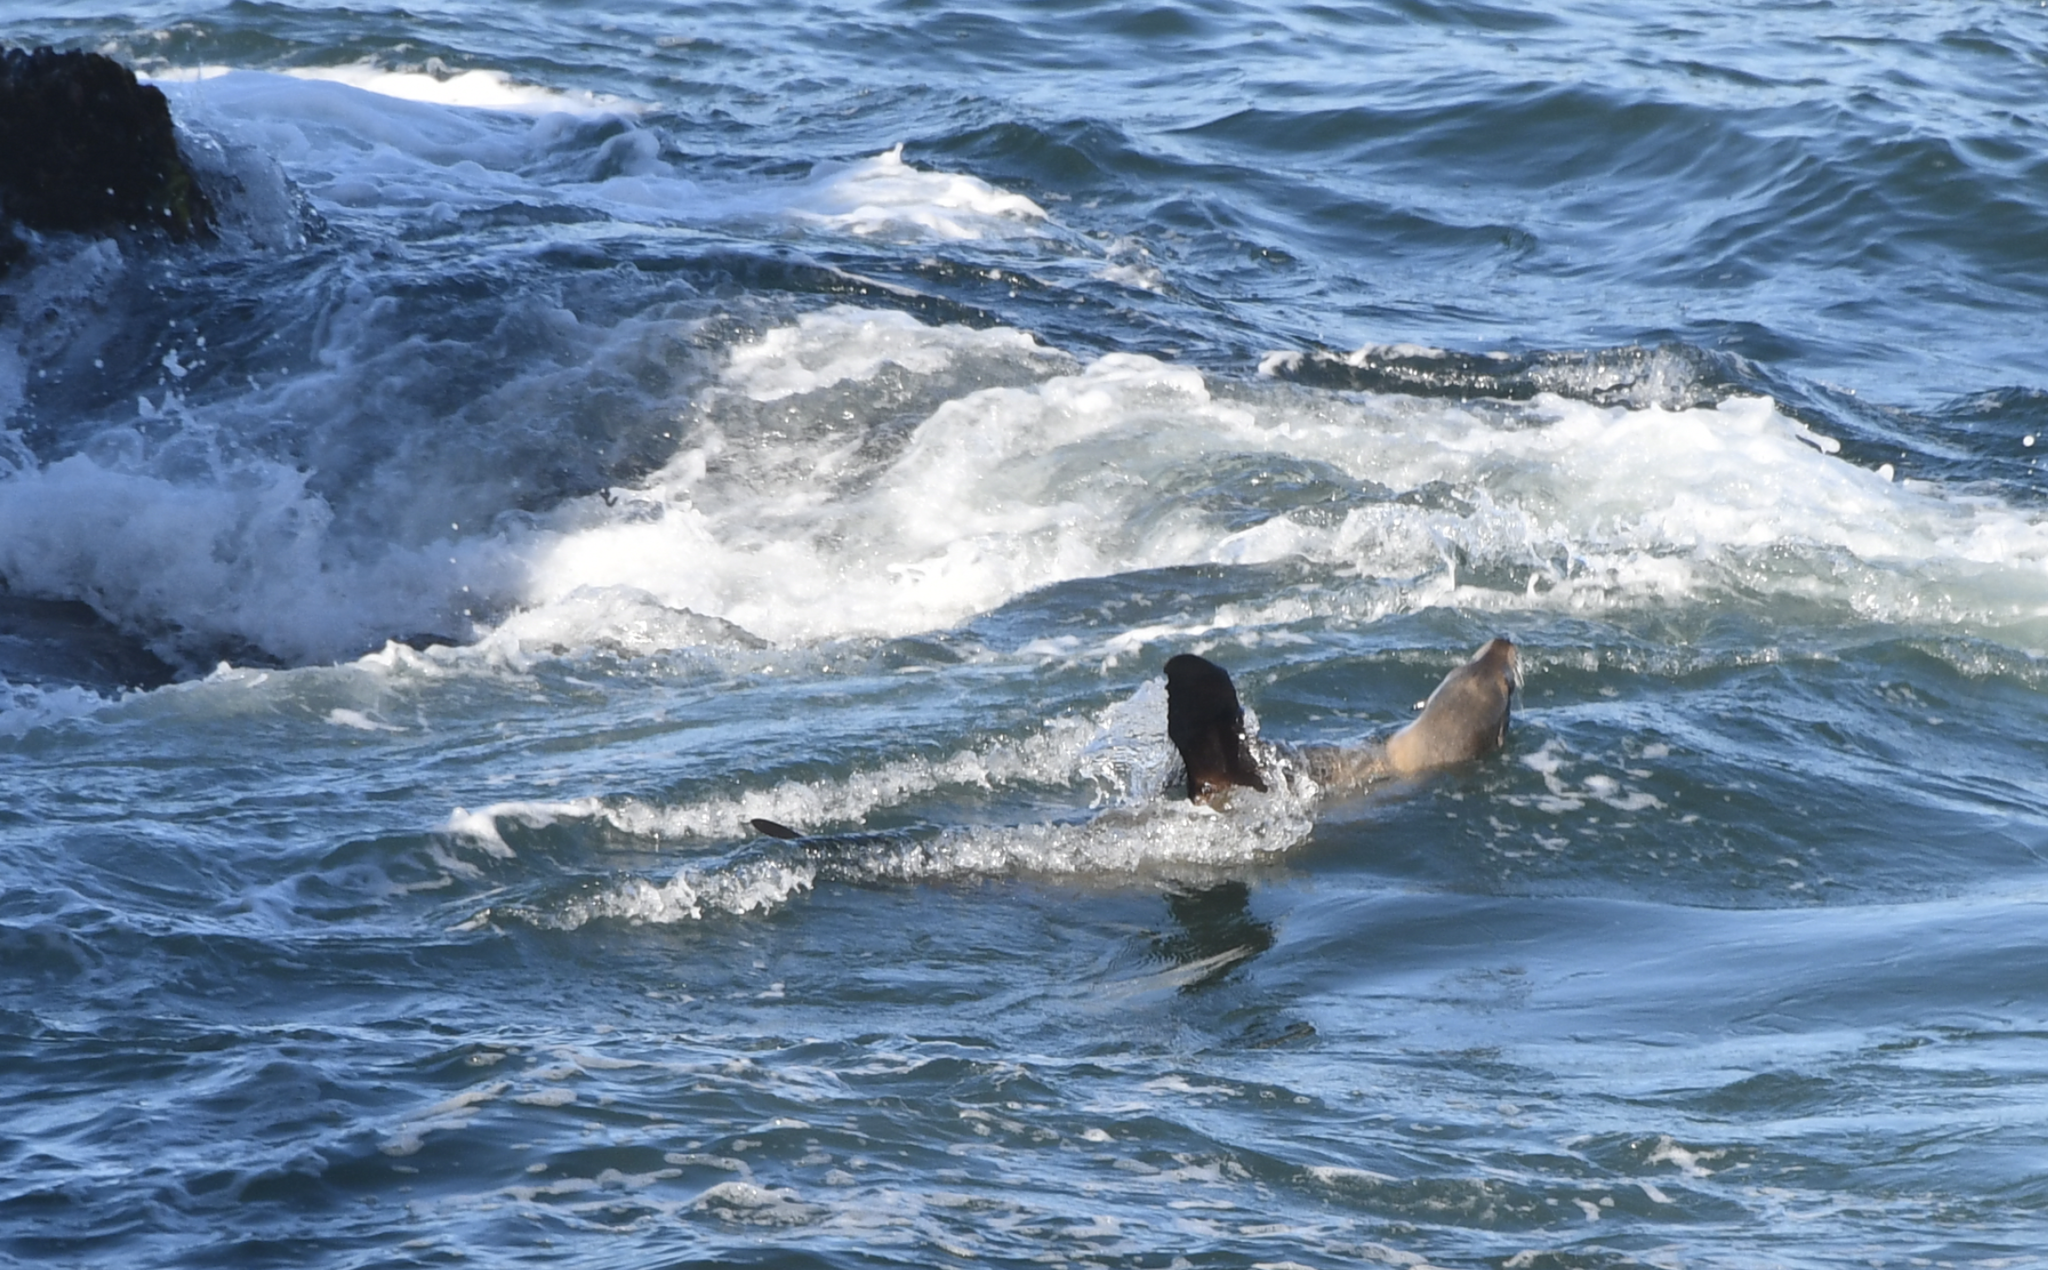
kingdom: Animalia
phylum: Chordata
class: Mammalia
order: Carnivora
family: Otariidae
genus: Zalophus
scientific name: Zalophus californianus
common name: California sea lion
